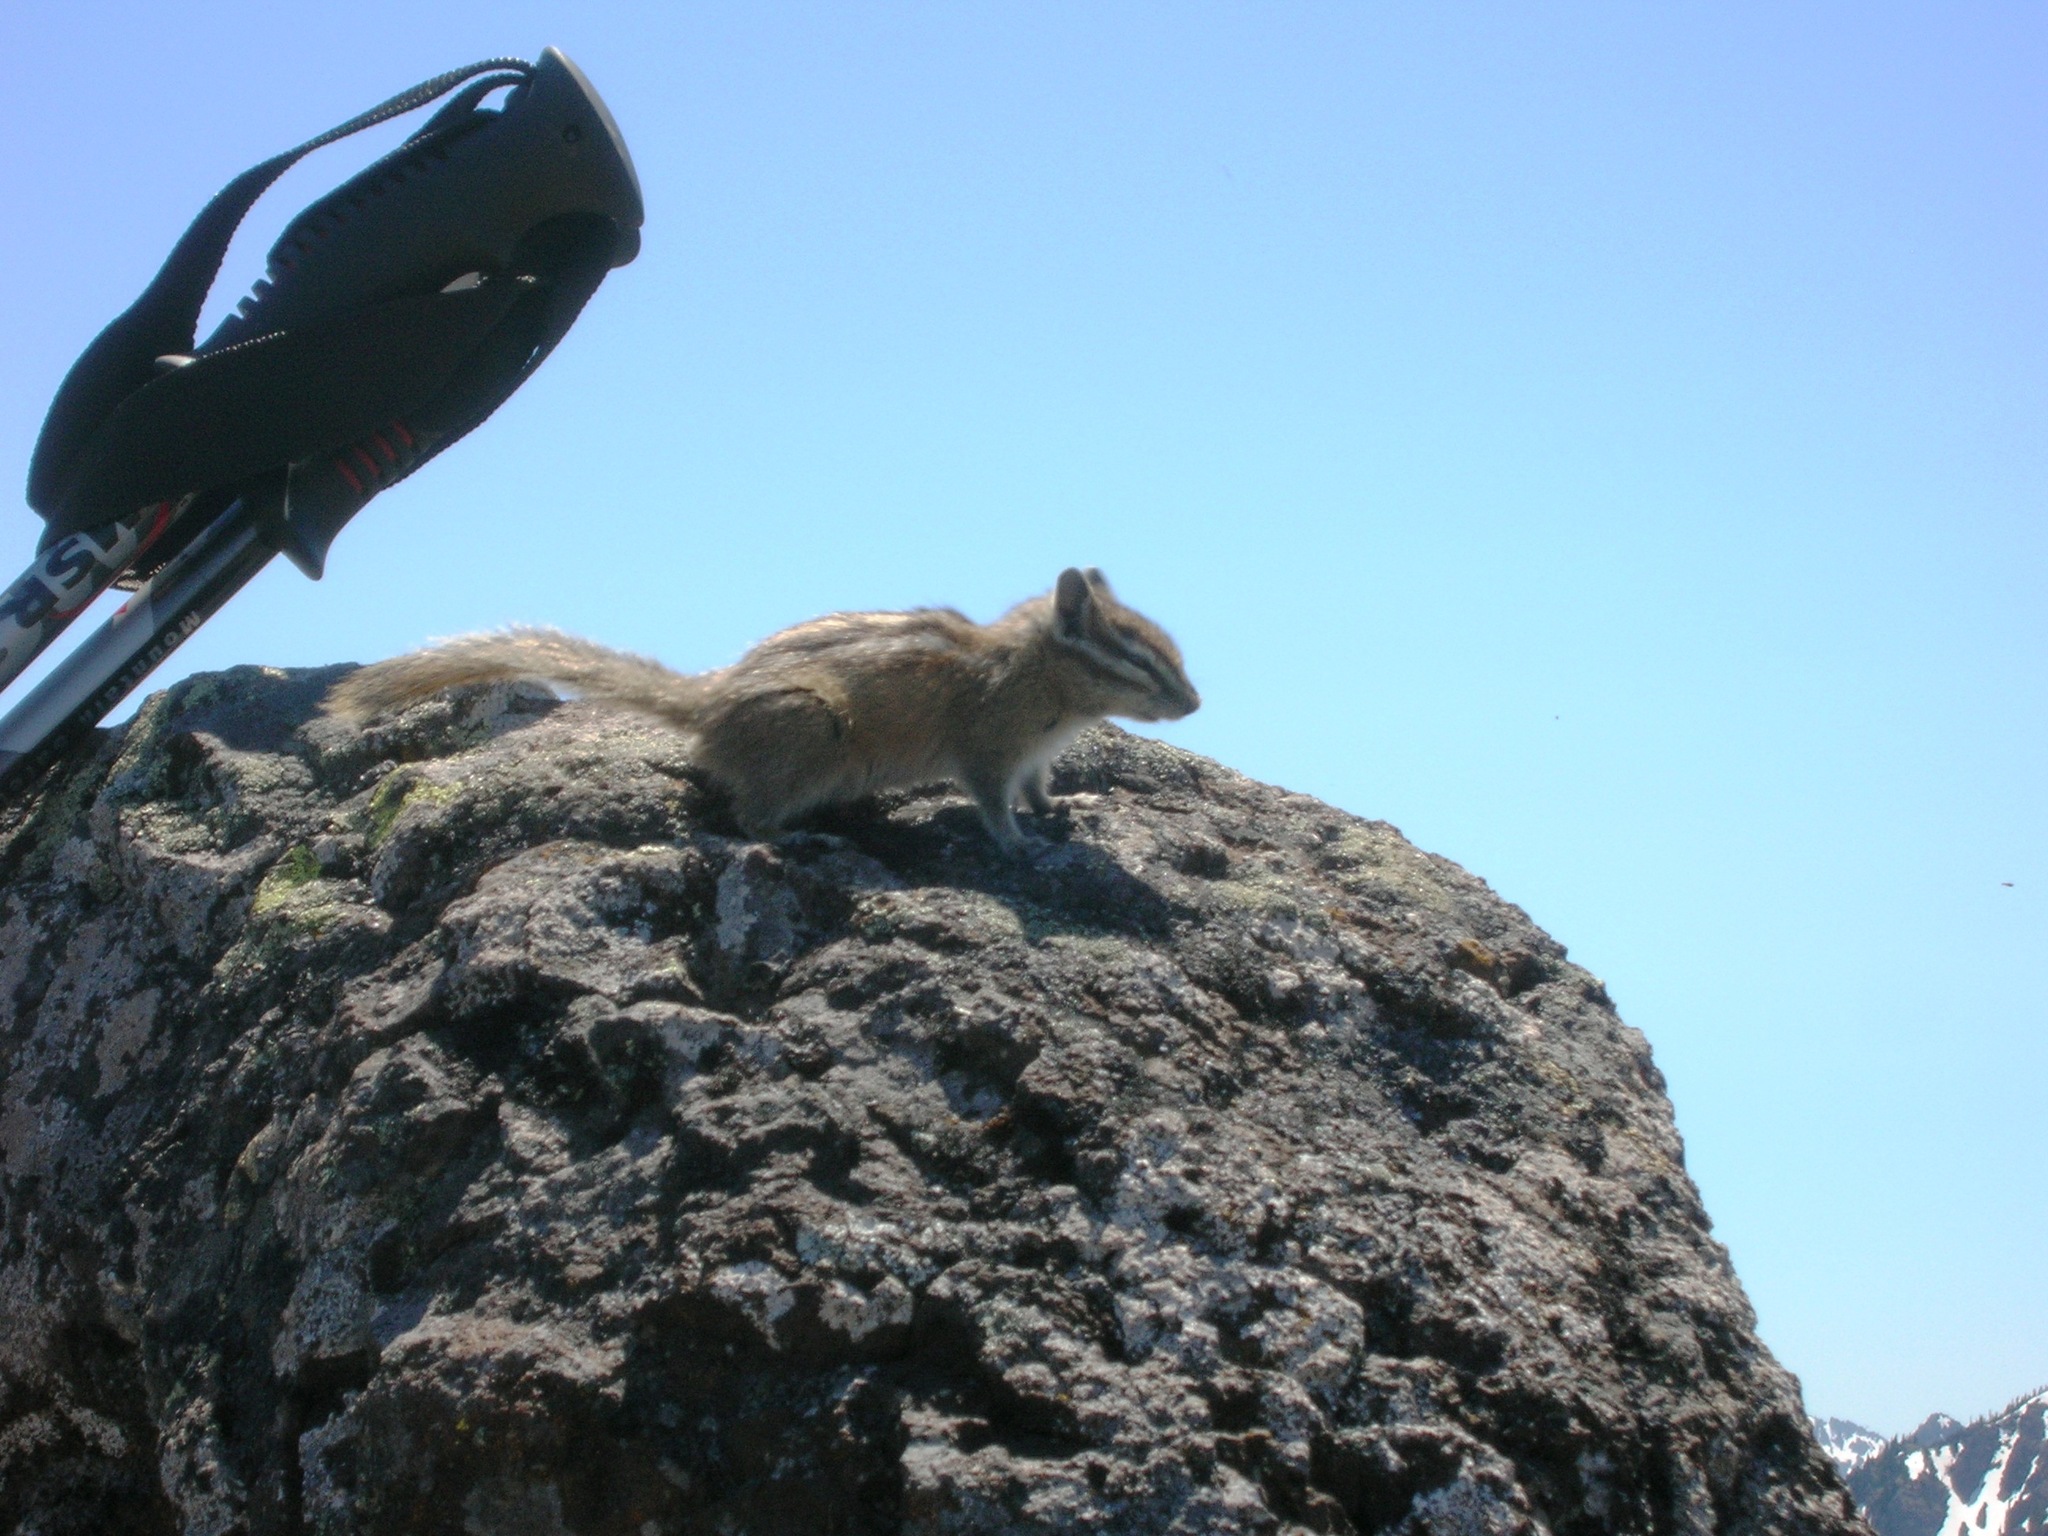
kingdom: Animalia
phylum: Chordata
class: Mammalia
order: Rodentia
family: Sciuridae
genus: Tamias
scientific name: Tamias amoenus
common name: Yellow-pine chipmunk
